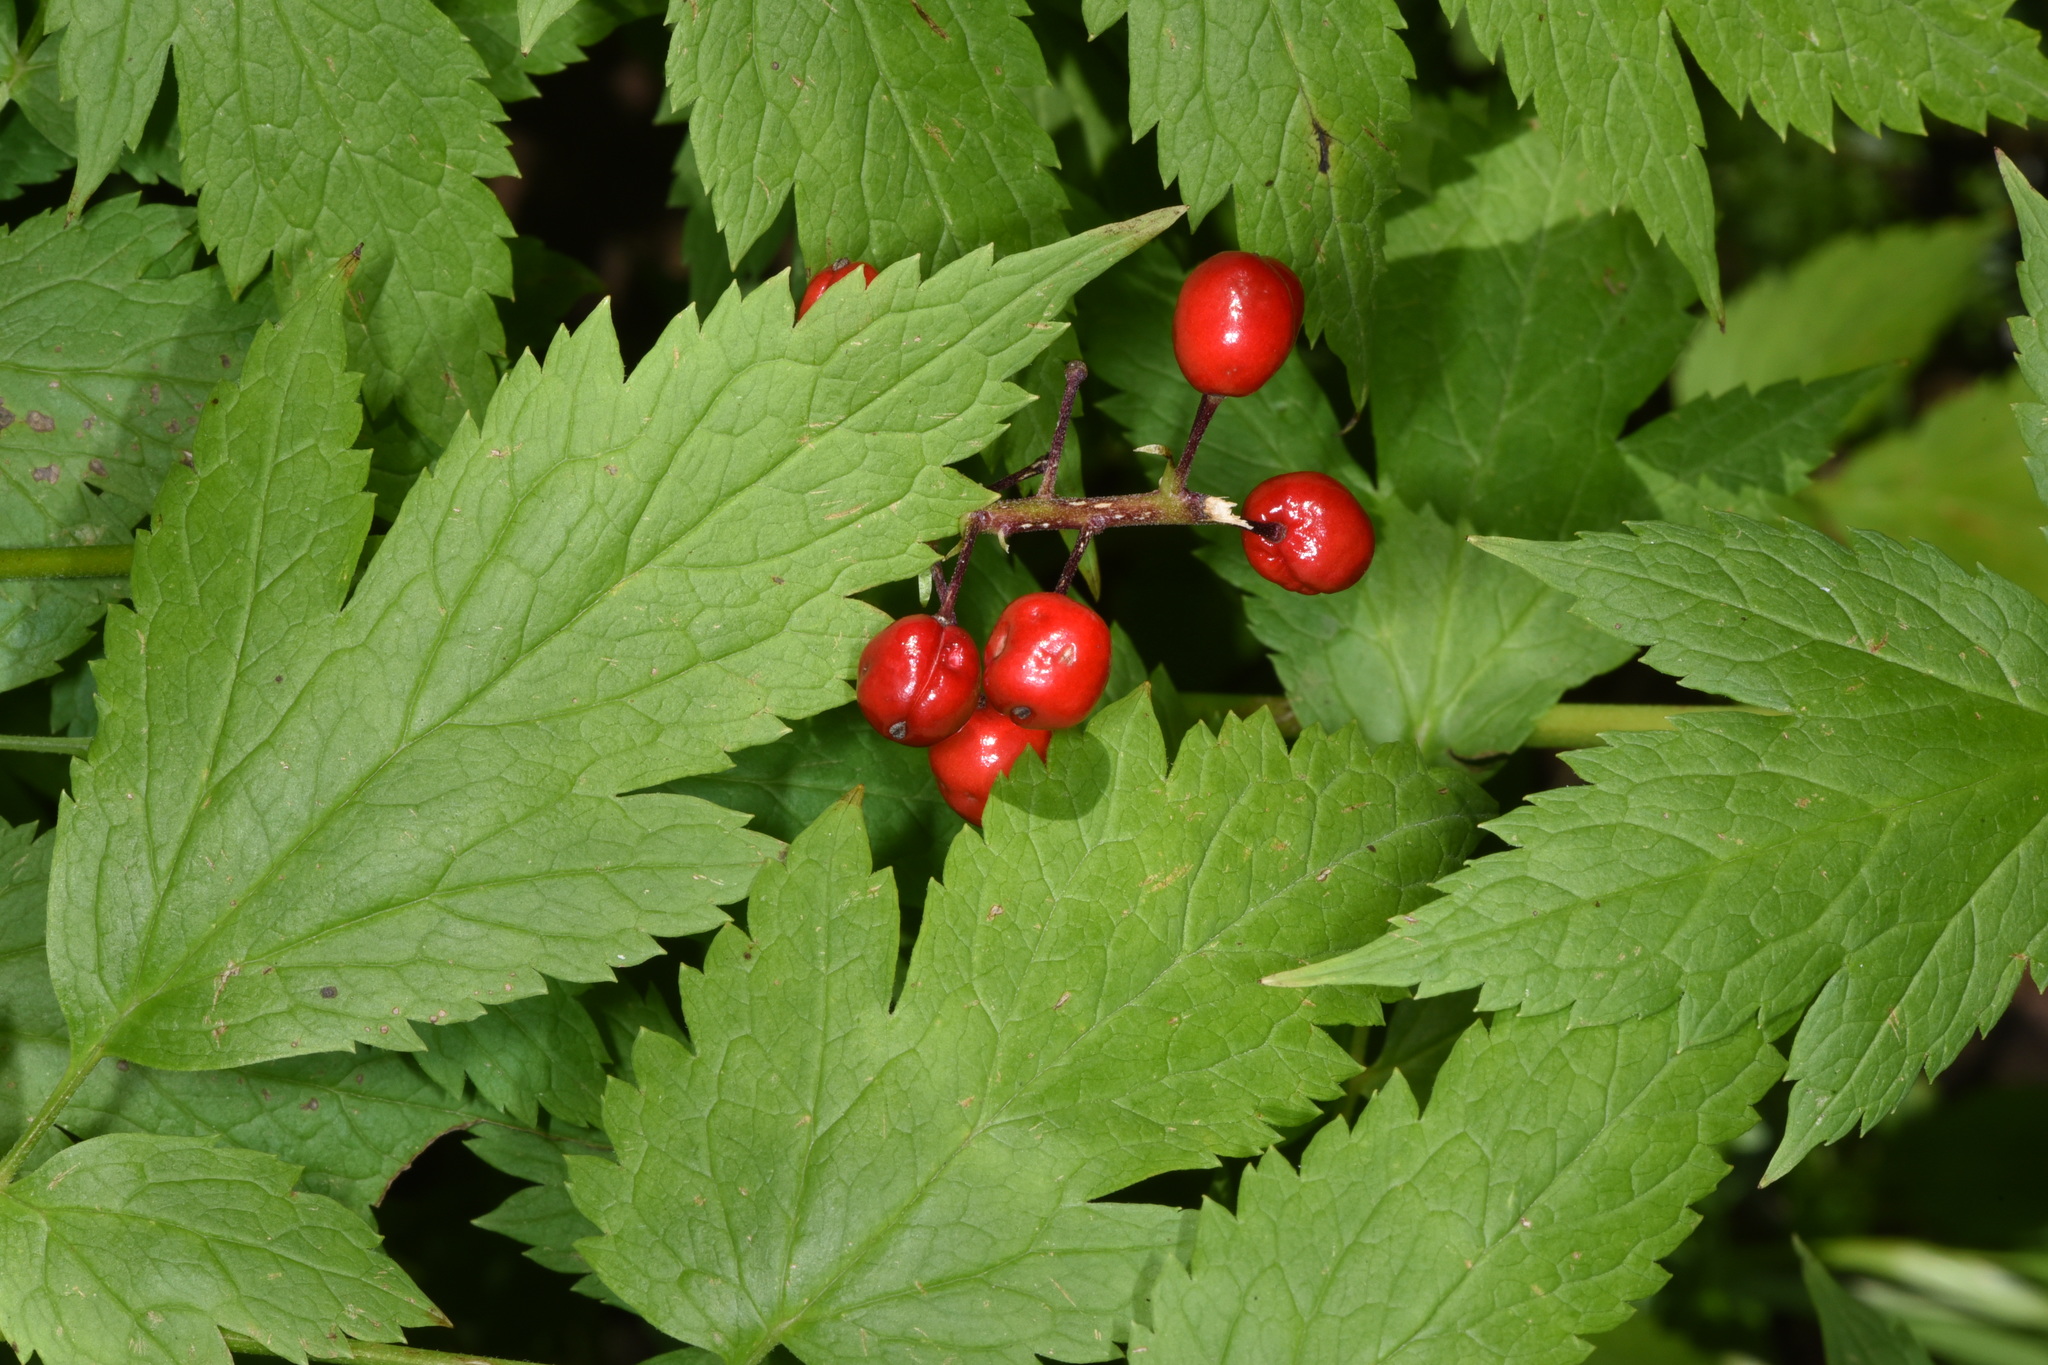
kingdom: Plantae
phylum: Tracheophyta
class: Magnoliopsida
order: Ranunculales
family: Ranunculaceae
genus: Actaea
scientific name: Actaea rubra
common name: Red baneberry
